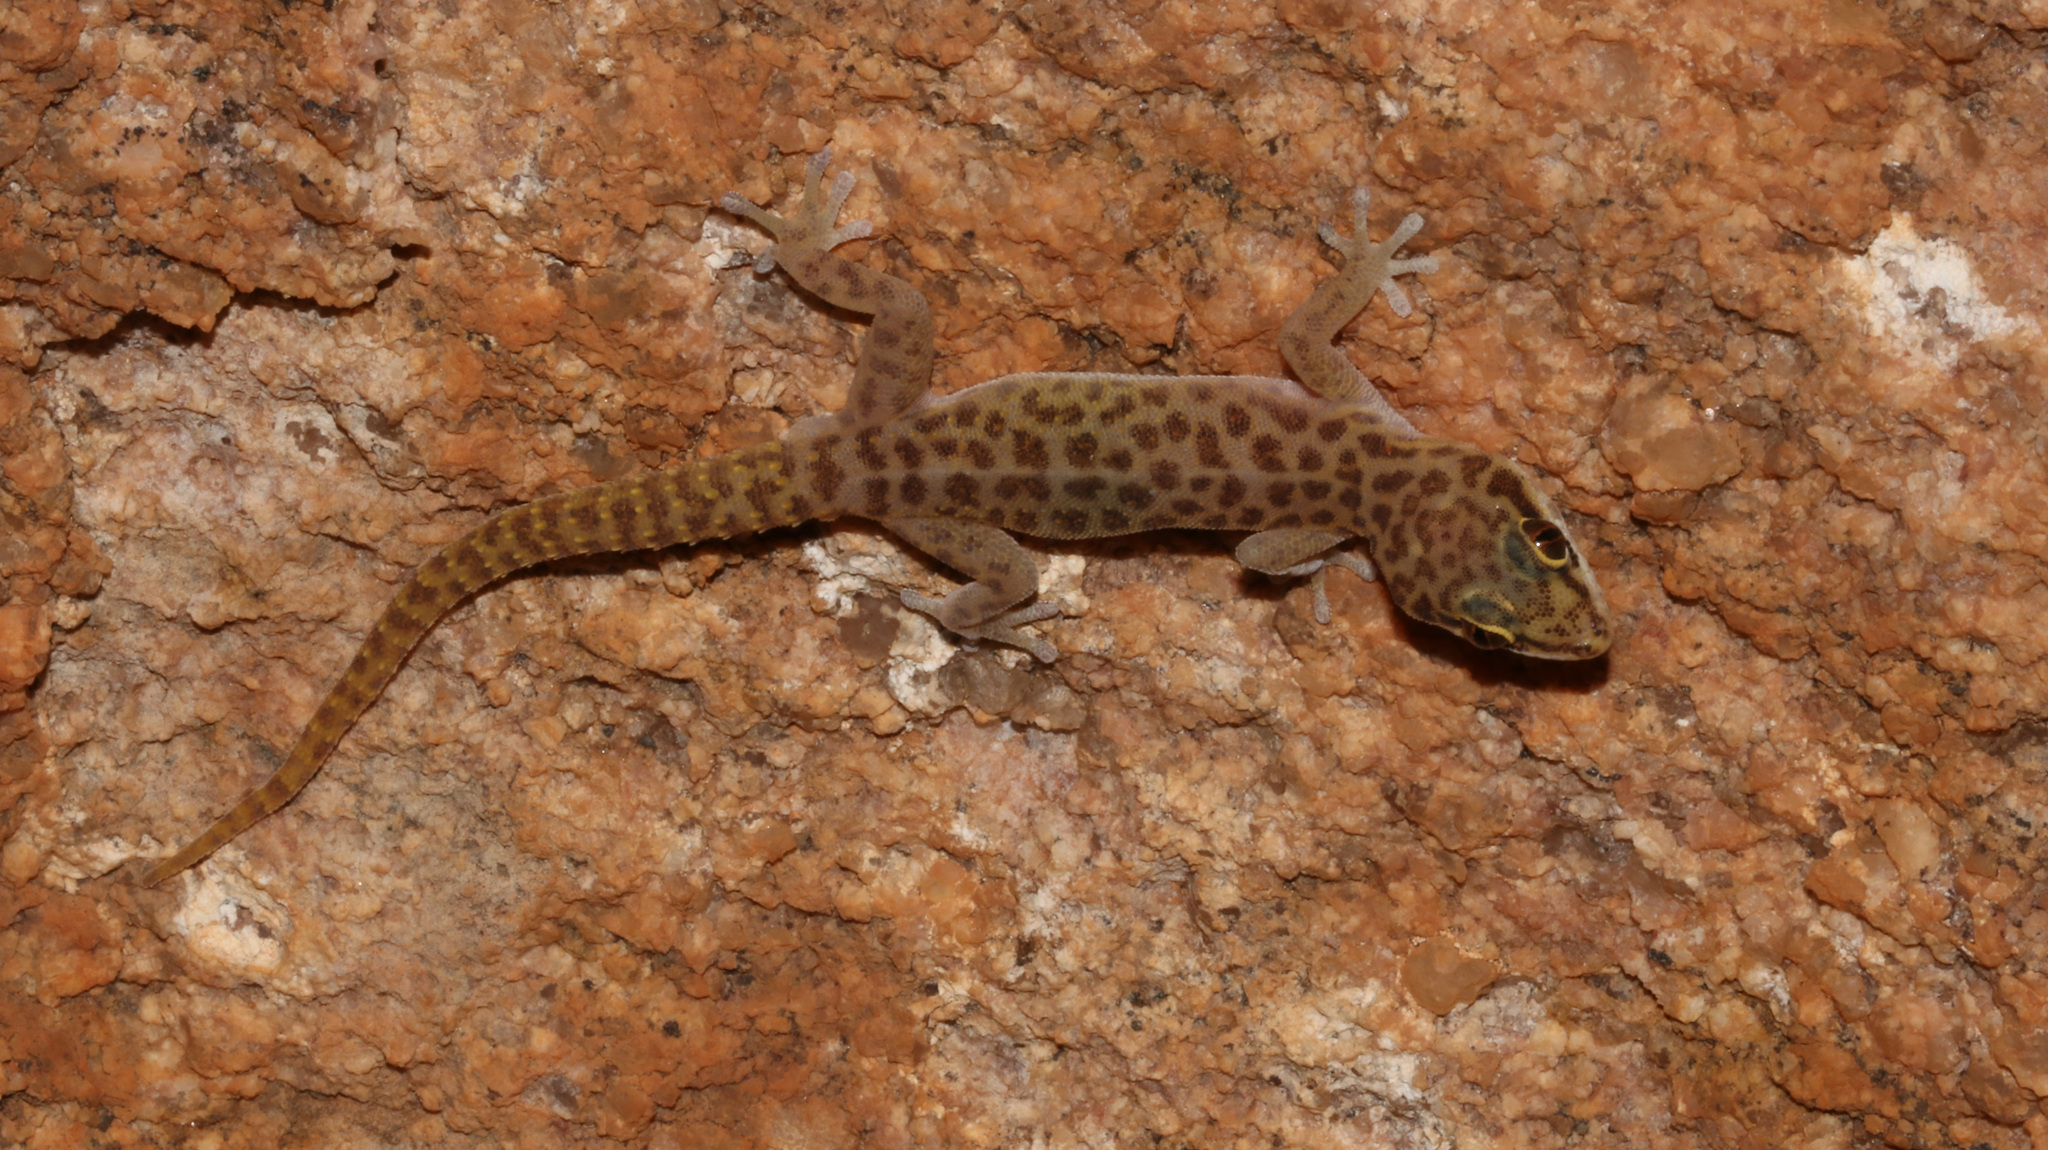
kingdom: Animalia
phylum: Chordata
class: Squamata
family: Gekkonidae
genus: Pachydactylus
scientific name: Pachydactylus serval
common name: Western spotted thick-toed gecko
